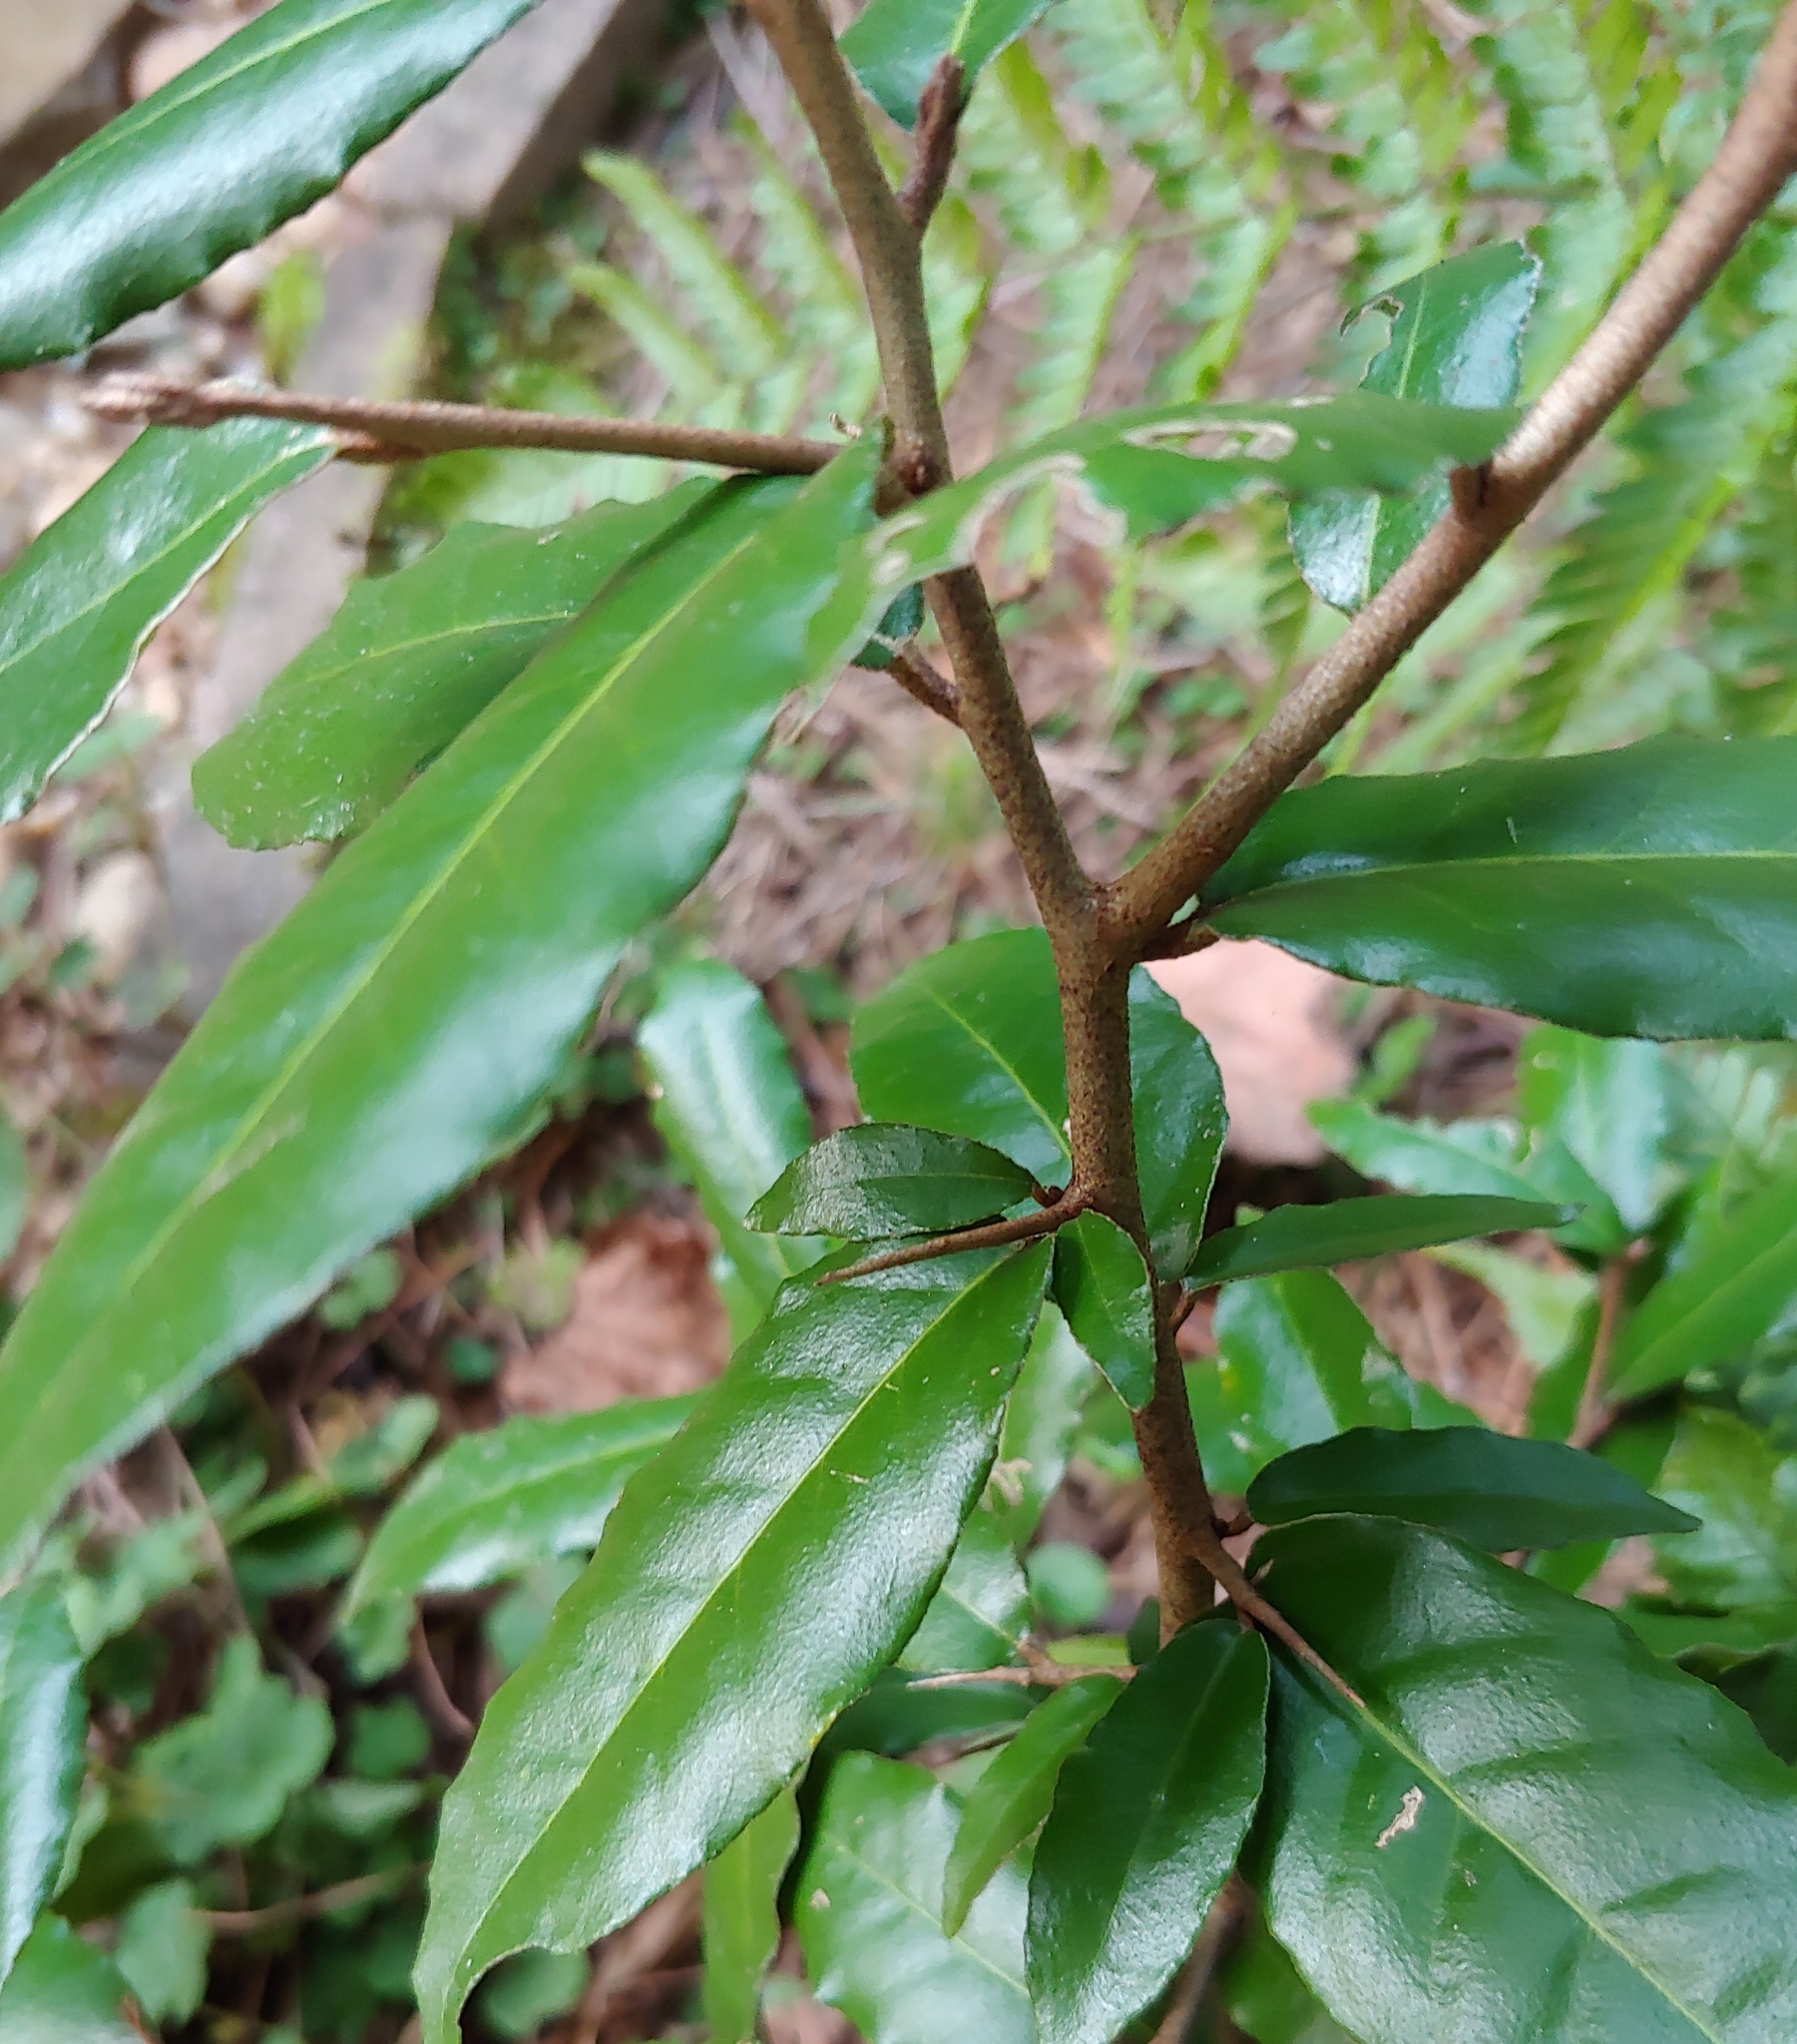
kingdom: Plantae
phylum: Tracheophyta
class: Magnoliopsida
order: Rosales
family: Elaeagnaceae
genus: Elaeagnus
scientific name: Elaeagnus pungens
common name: Spiny oleaster
